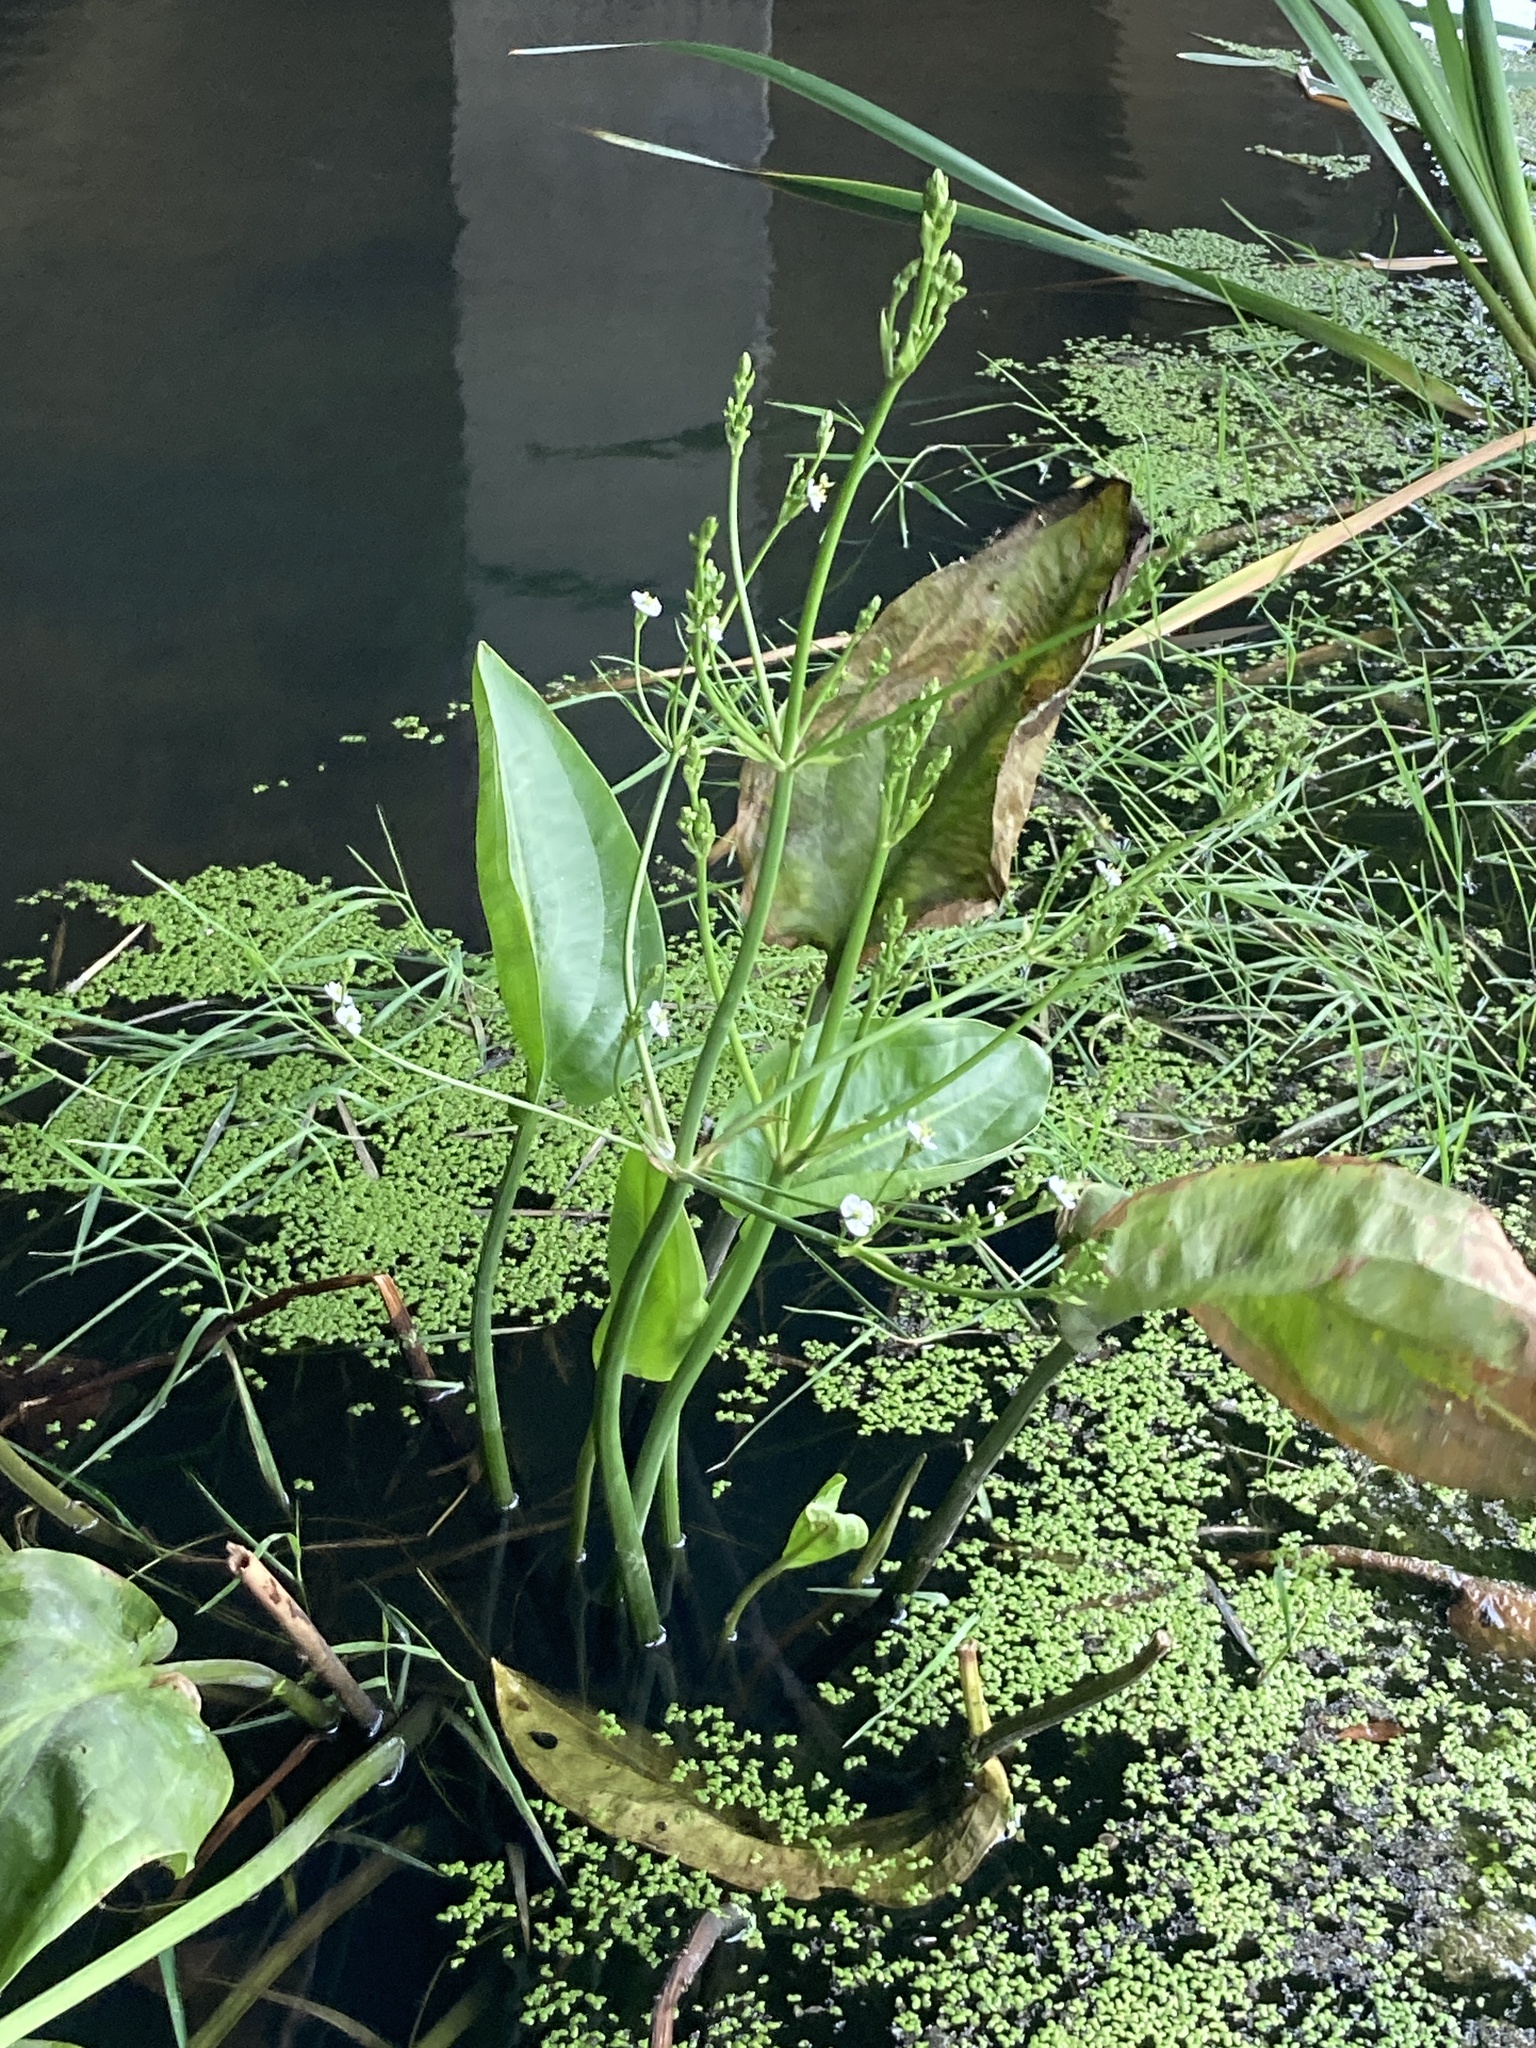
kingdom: Plantae
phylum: Tracheophyta
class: Liliopsida
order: Alismatales
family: Alismataceae
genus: Alisma
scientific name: Alisma plantago-aquatica
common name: Water-plantain
